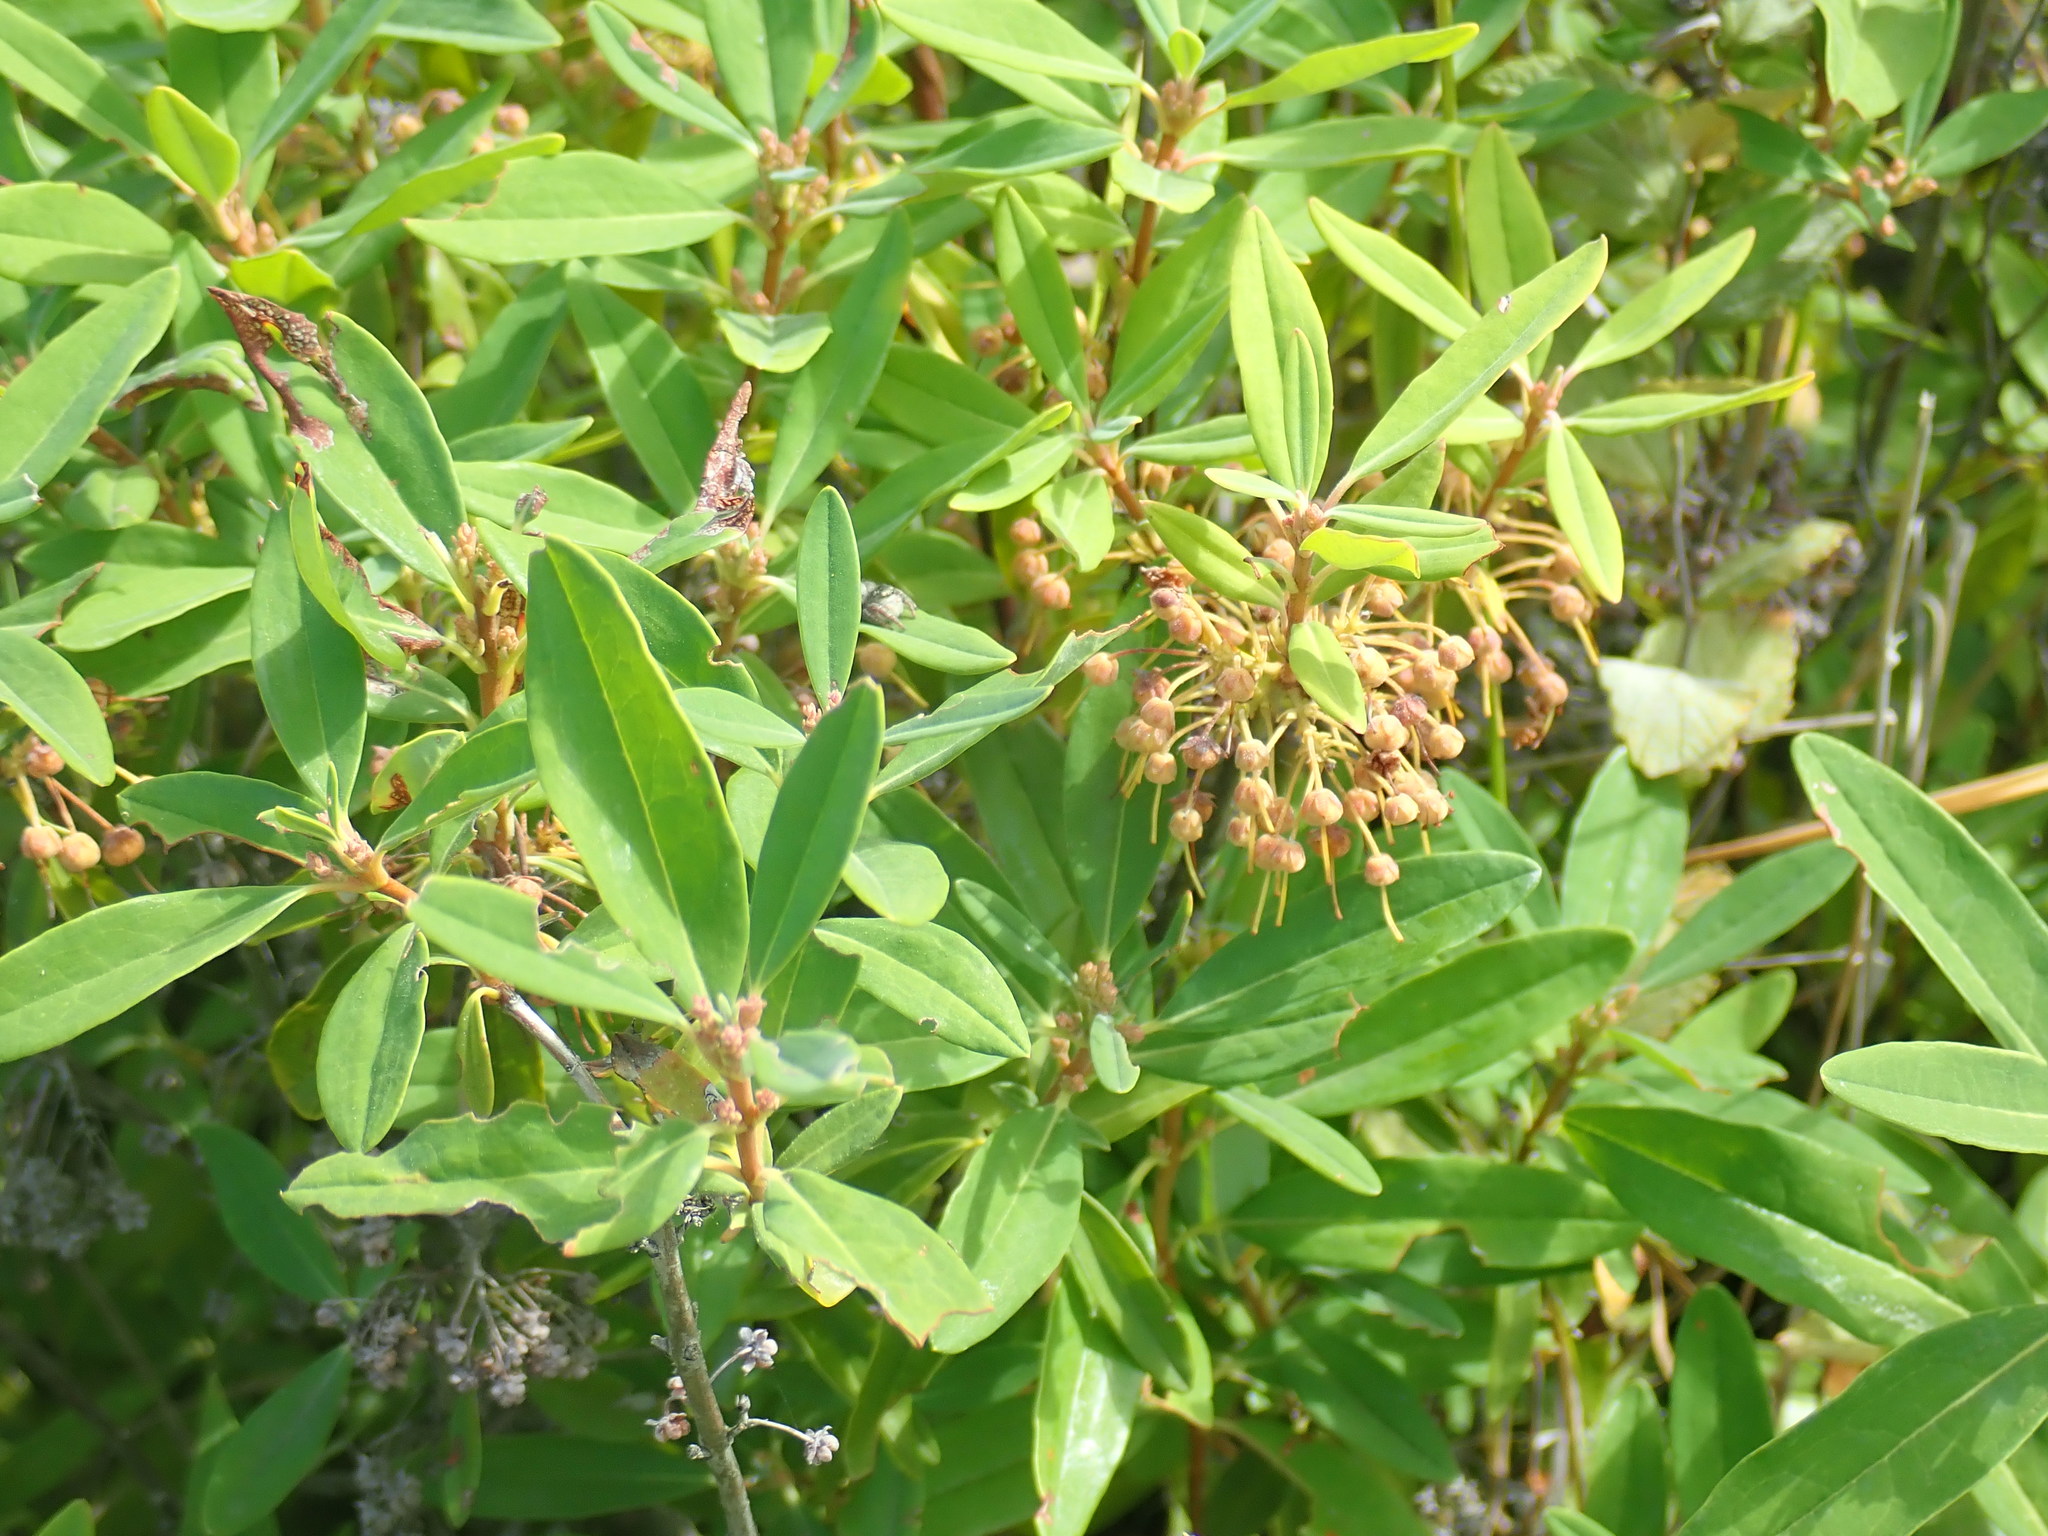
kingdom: Plantae
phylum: Tracheophyta
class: Magnoliopsida
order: Ericales
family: Ericaceae
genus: Kalmia
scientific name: Kalmia angustifolia
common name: Sheep-laurel
